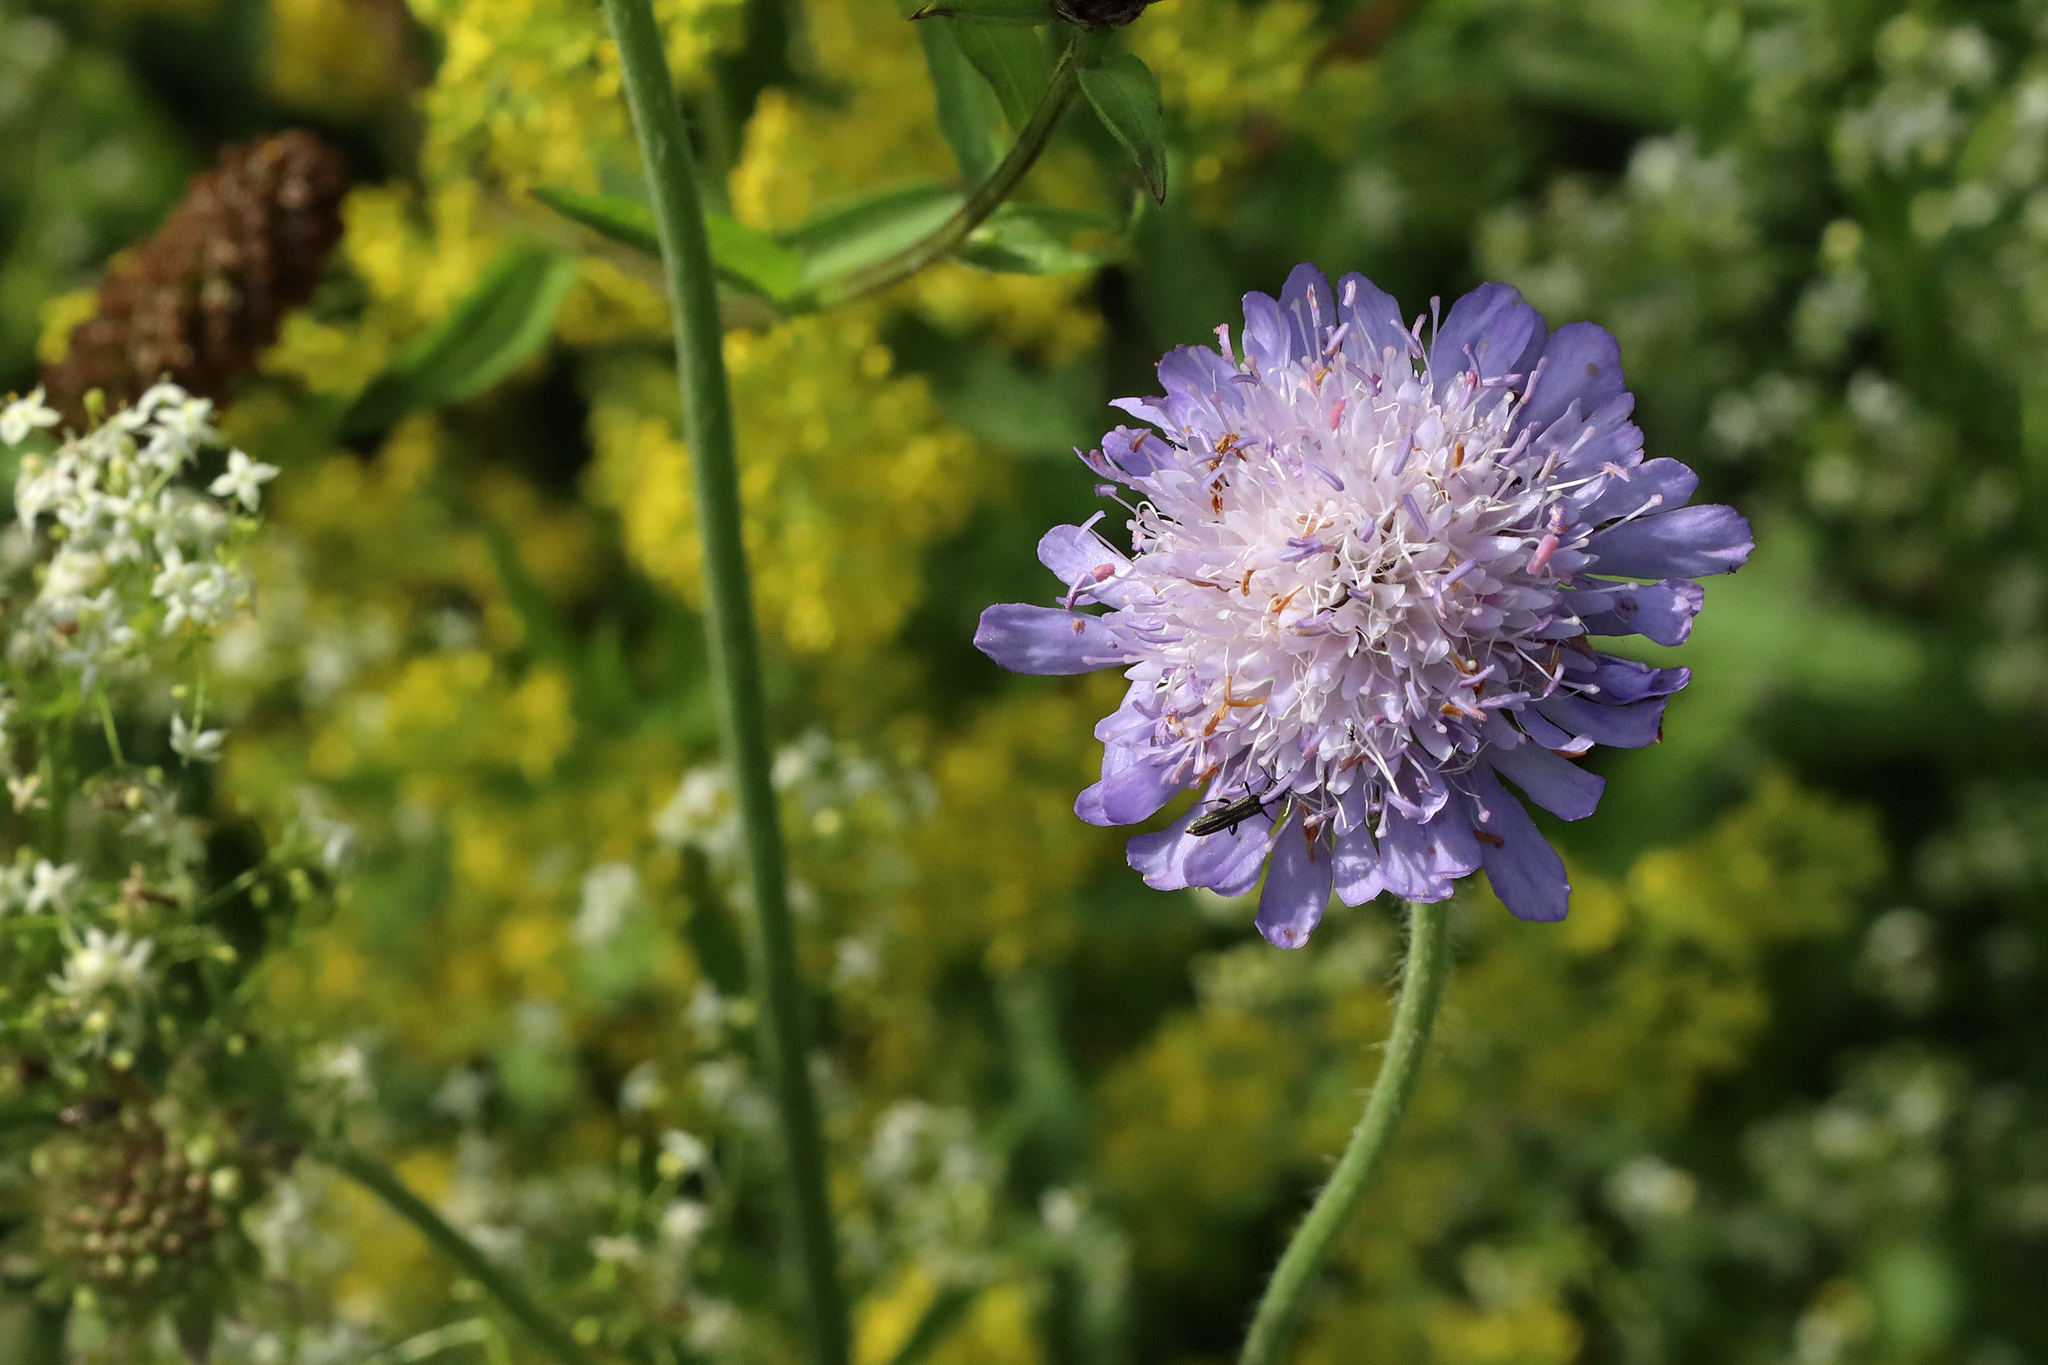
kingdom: Plantae
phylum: Tracheophyta
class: Magnoliopsida
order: Dipsacales
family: Caprifoliaceae
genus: Knautia
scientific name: Knautia arvensis
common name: Field scabiosa
